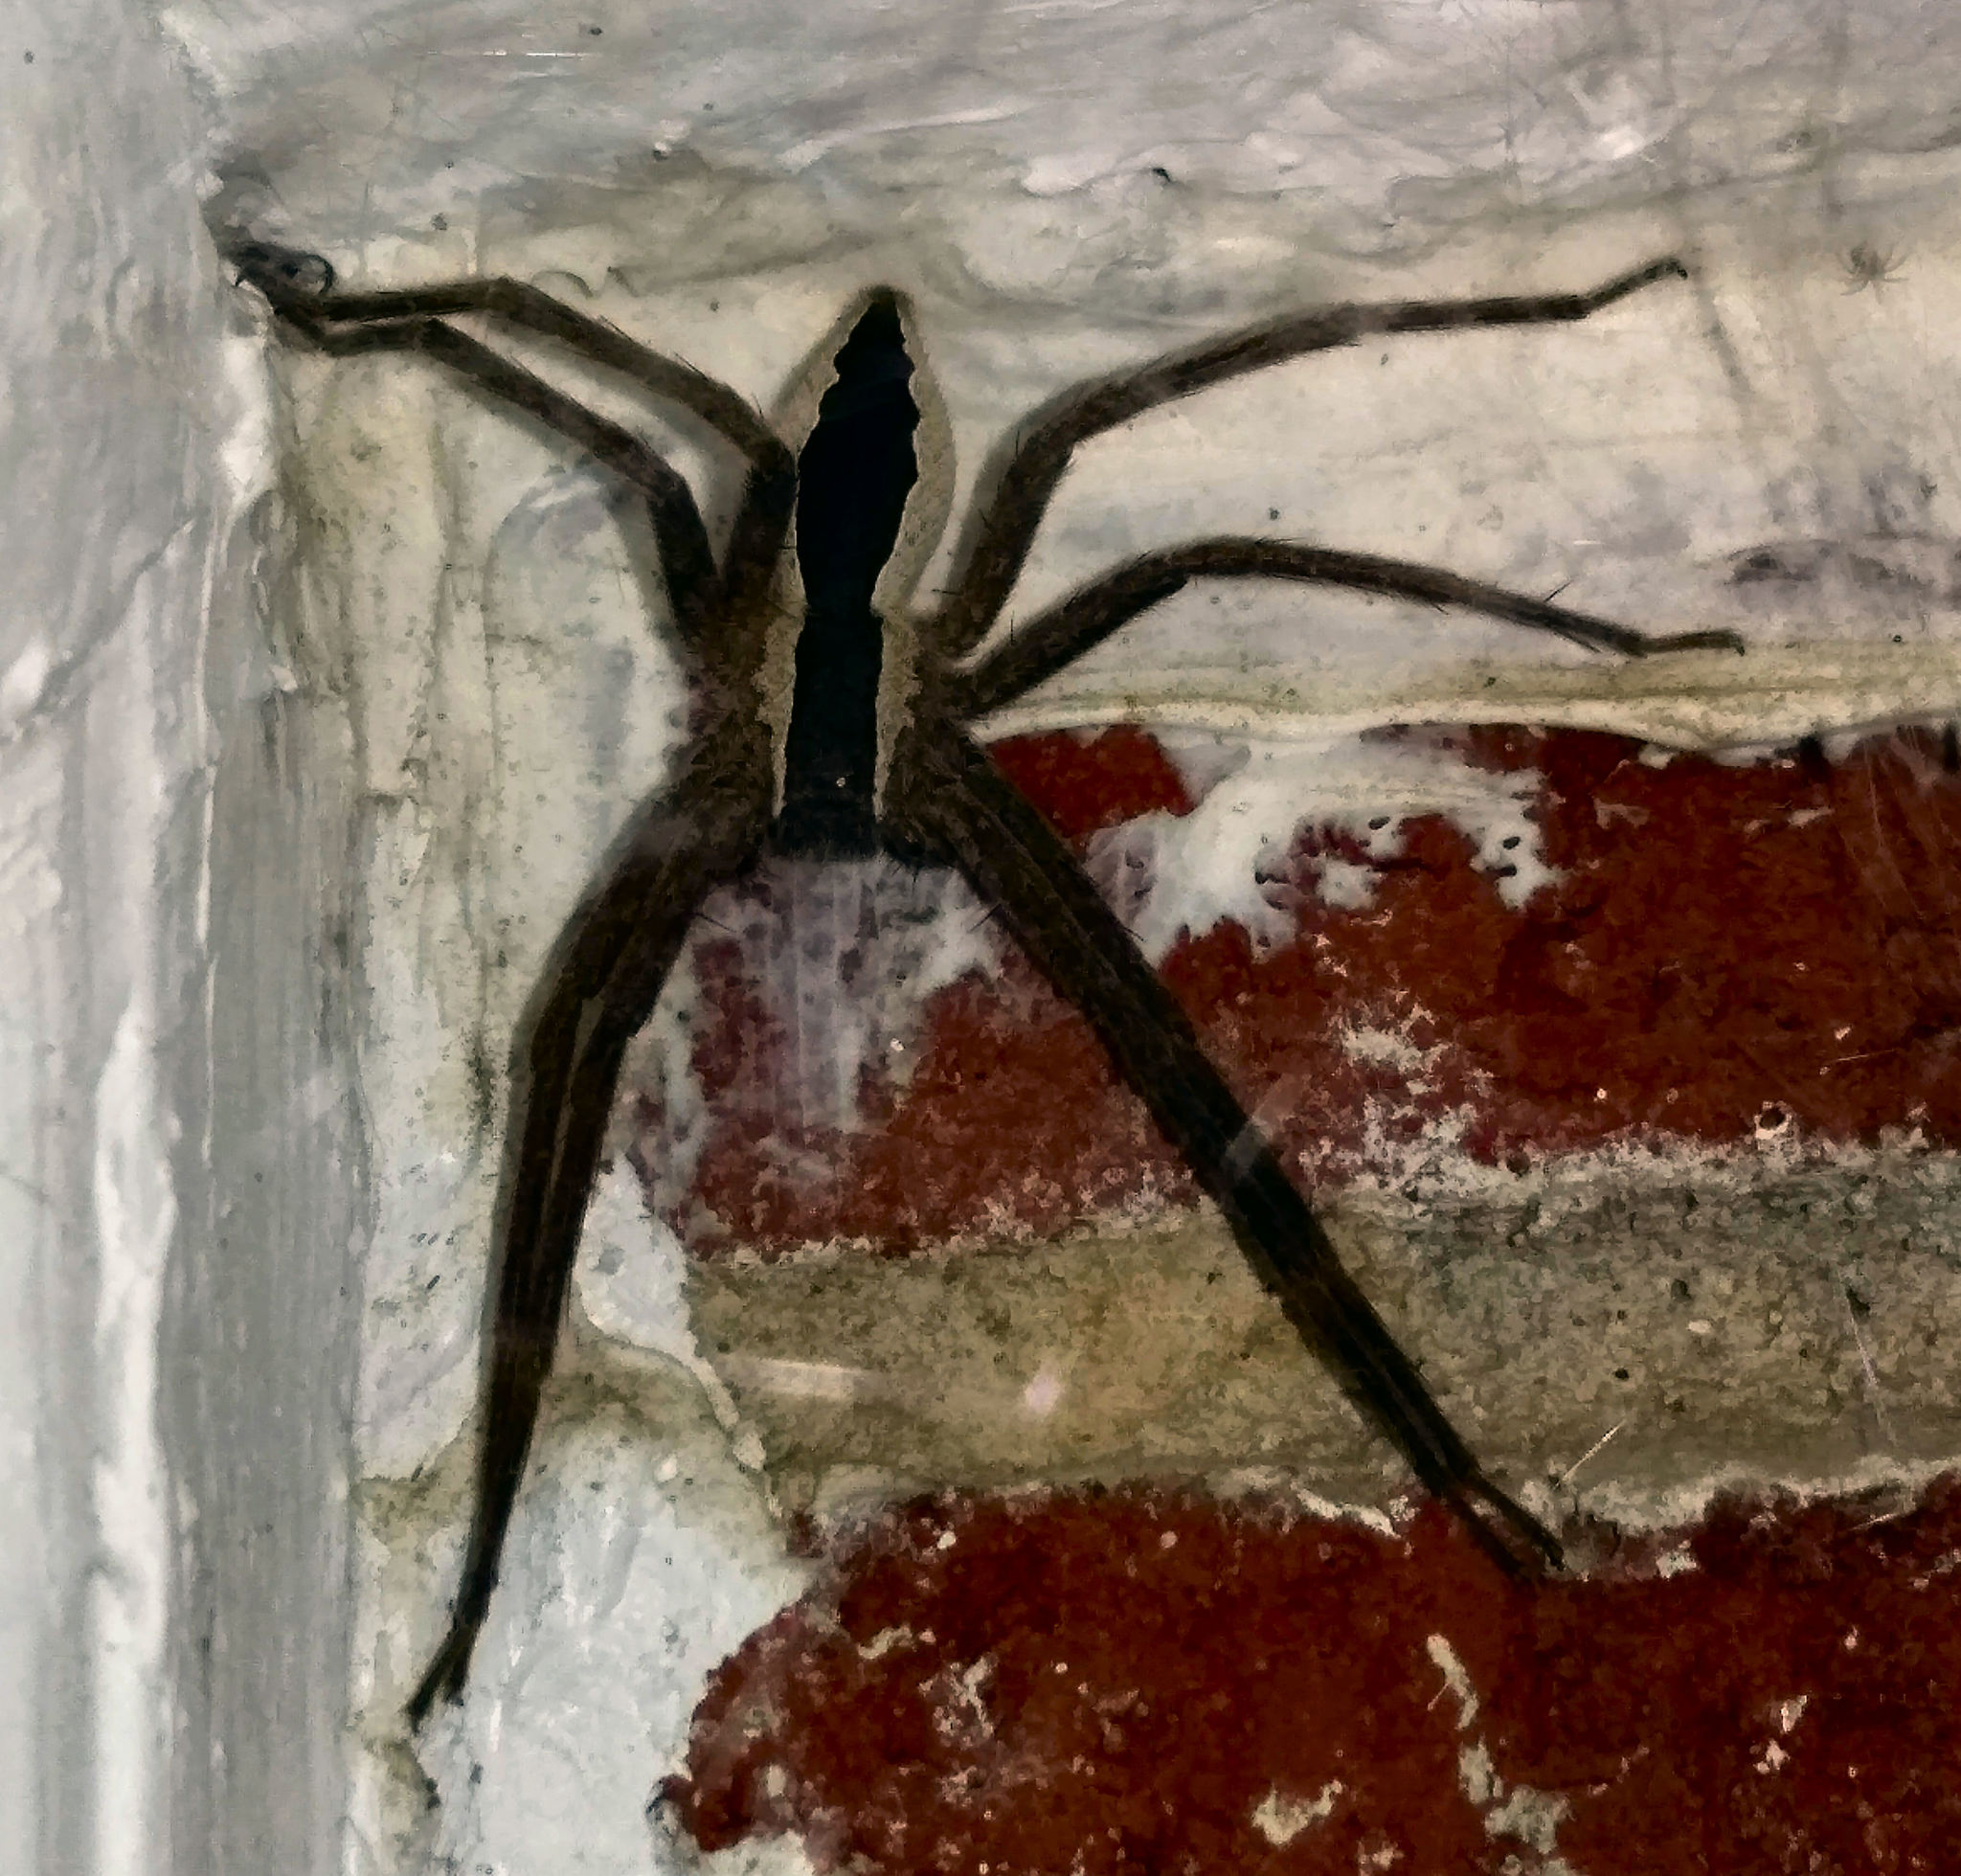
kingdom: Animalia
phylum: Arthropoda
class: Arachnida
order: Araneae
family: Pisauridae
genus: Pisaurina
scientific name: Pisaurina mira
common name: American nursery web spider
